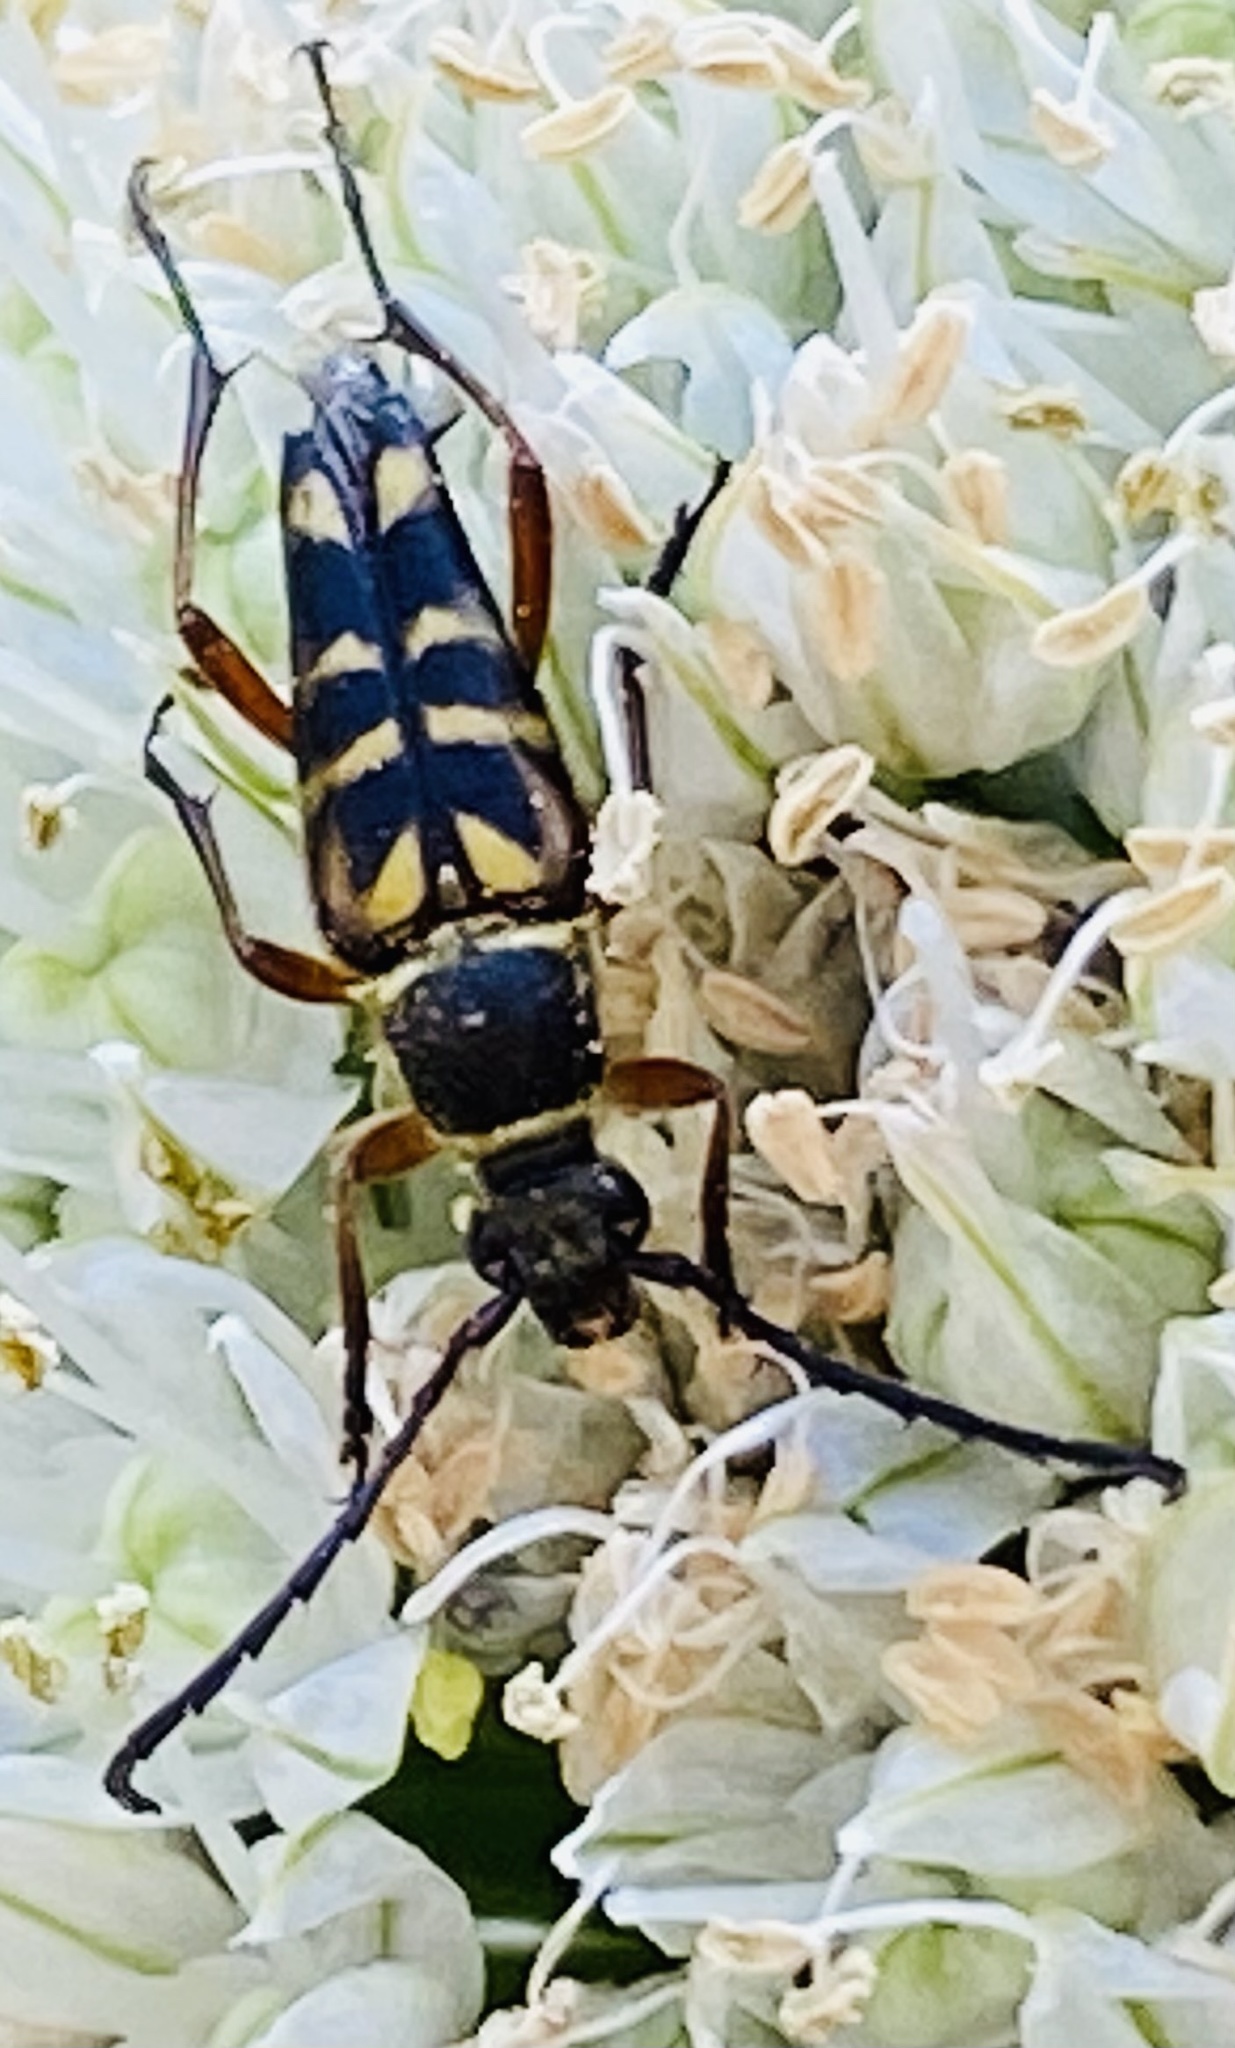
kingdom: Animalia
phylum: Arthropoda
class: Insecta
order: Coleoptera
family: Cerambycidae
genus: Typocerus
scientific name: Typocerus zebra
